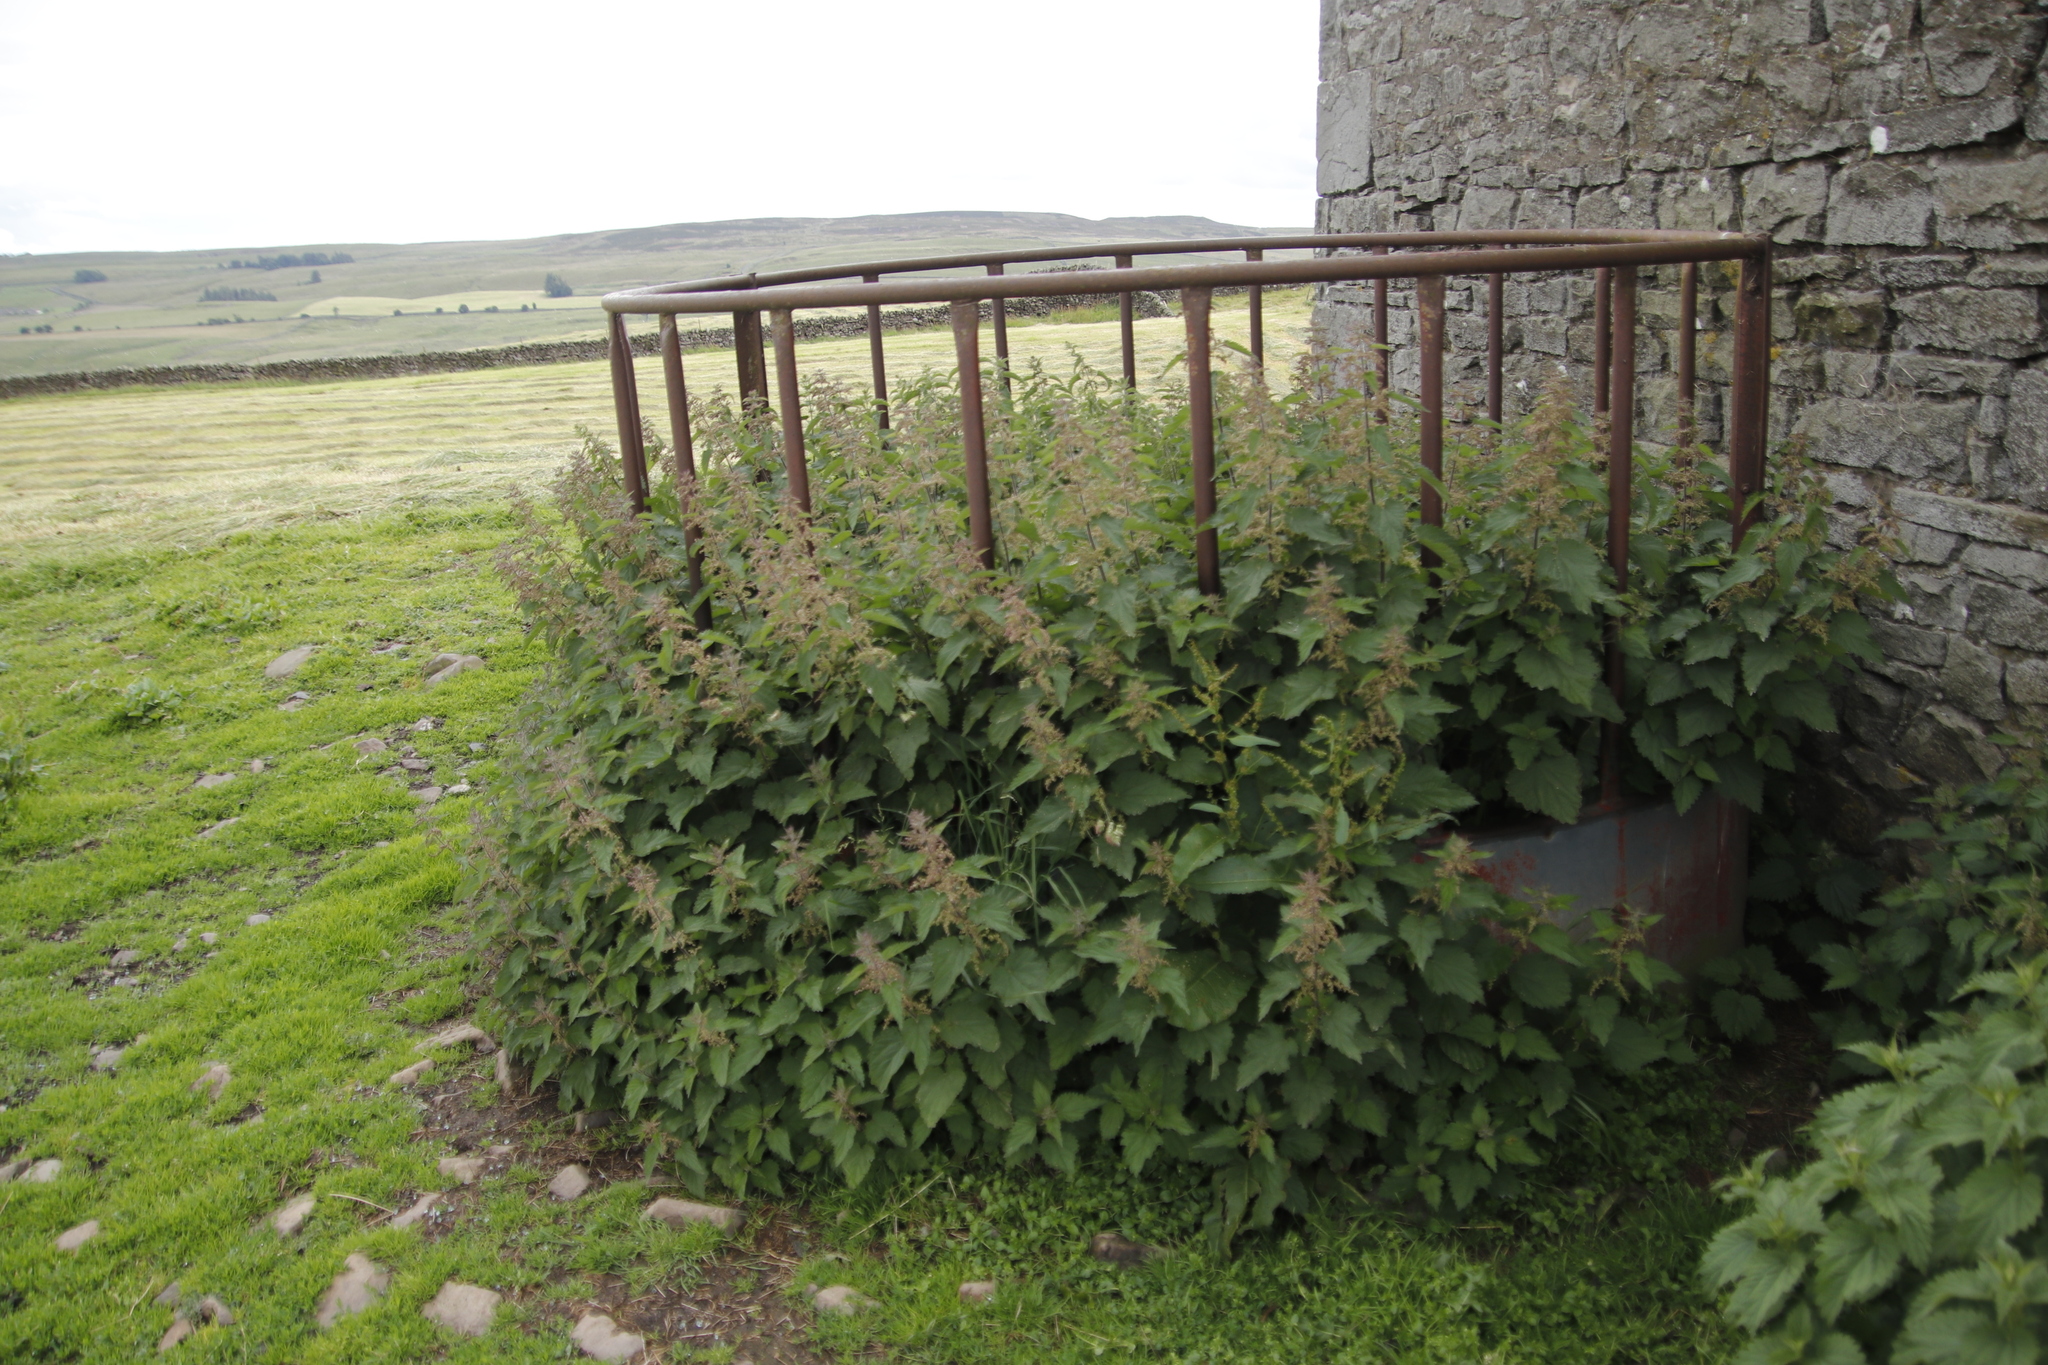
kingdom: Plantae
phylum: Tracheophyta
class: Magnoliopsida
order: Rosales
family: Urticaceae
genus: Urtica
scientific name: Urtica dioica
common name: Common nettle
